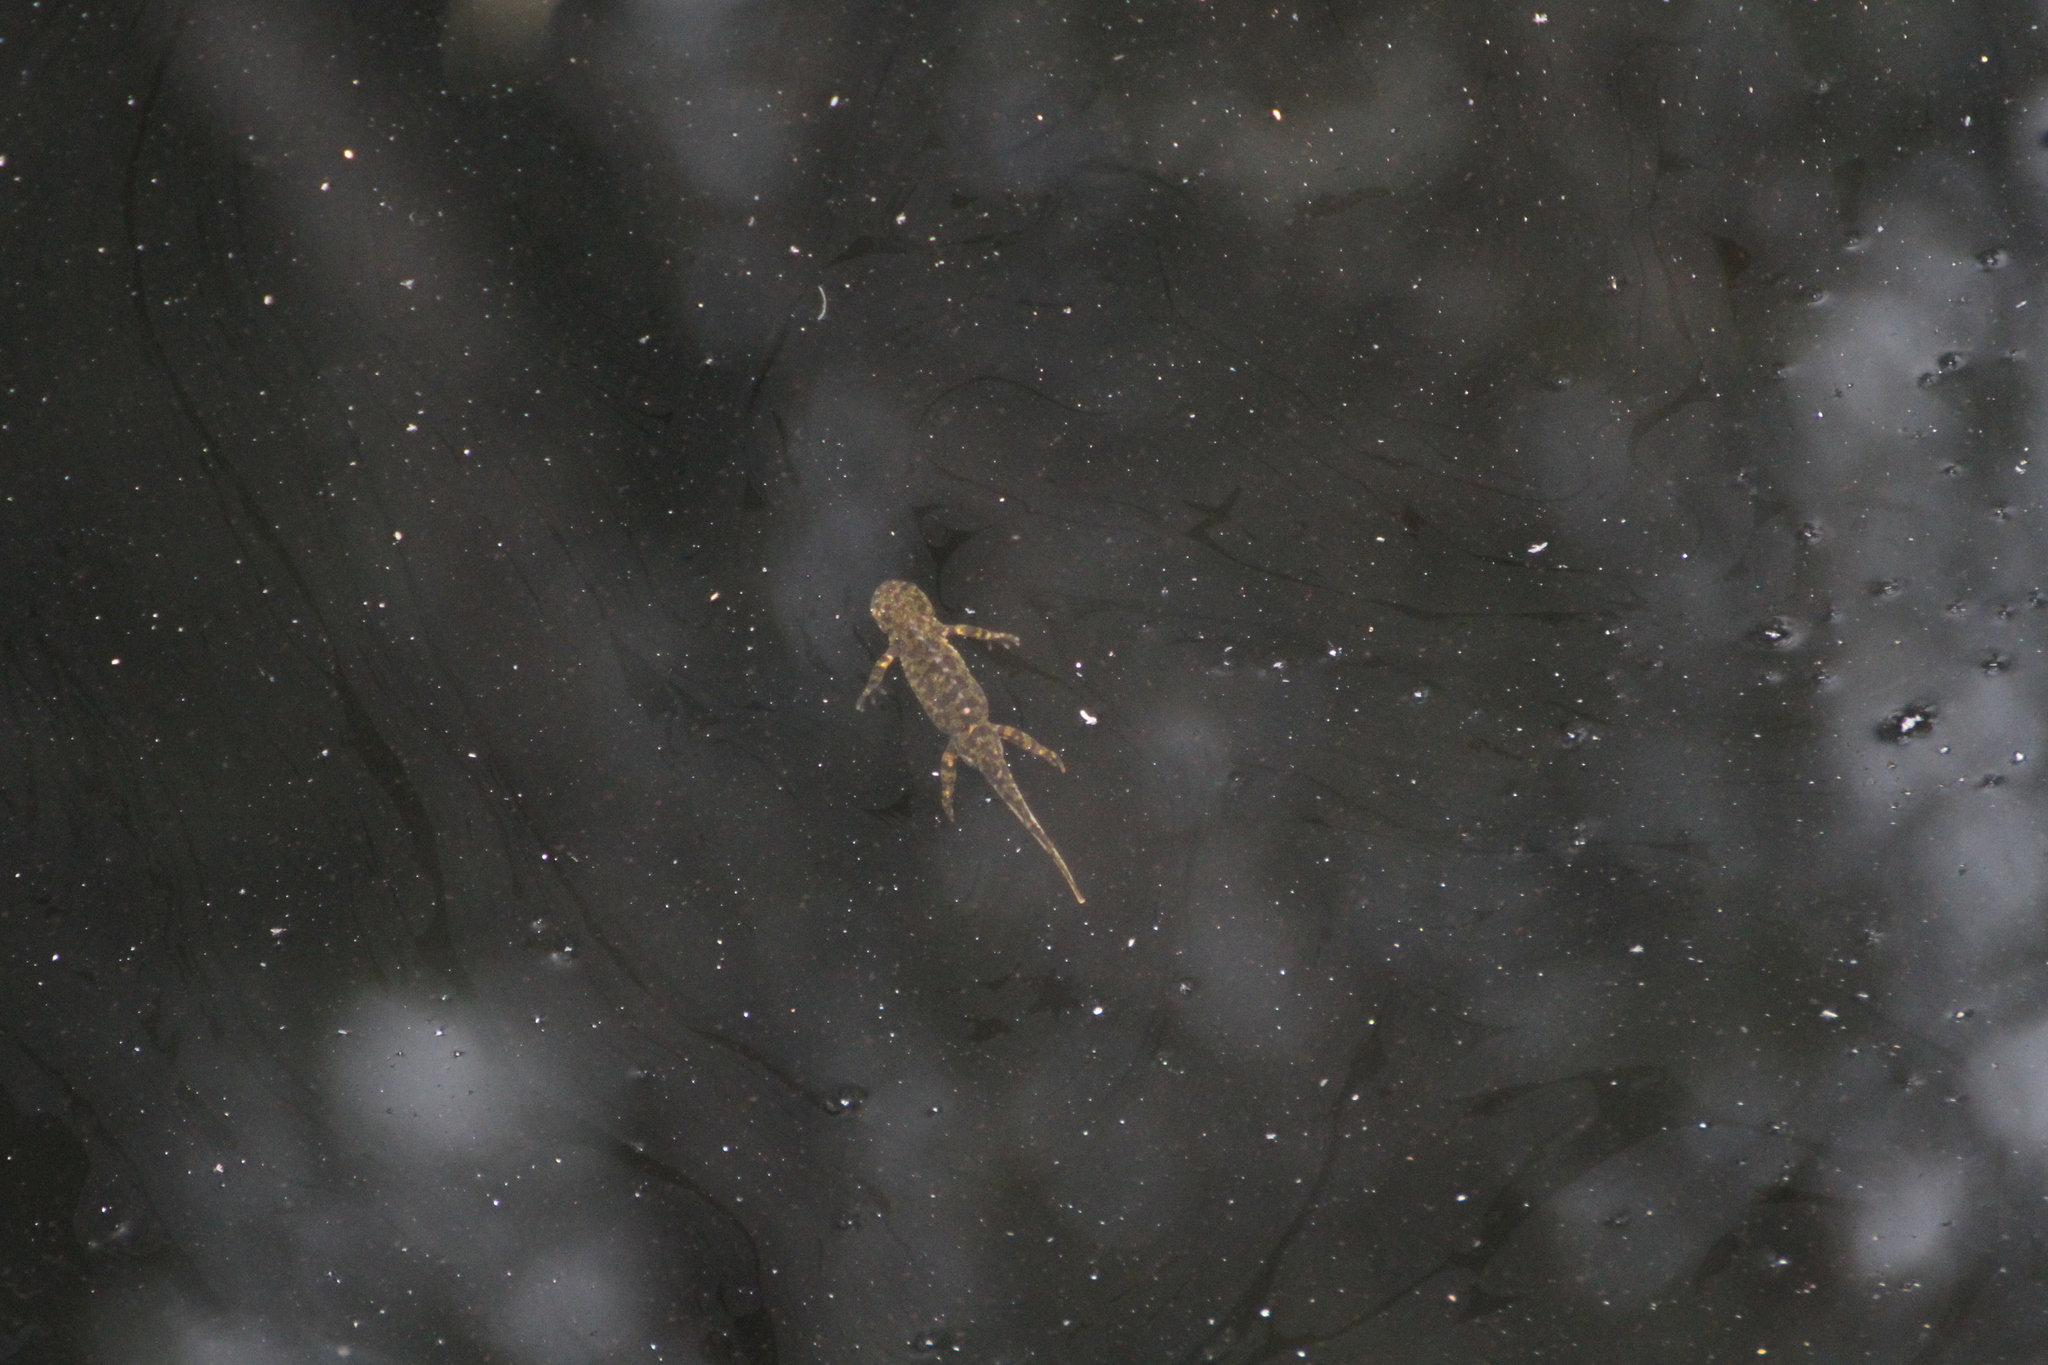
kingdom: Animalia
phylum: Chordata
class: Amphibia
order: Caudata
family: Salamandridae
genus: Triturus
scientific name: Triturus marmoratus
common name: Marbled newt
